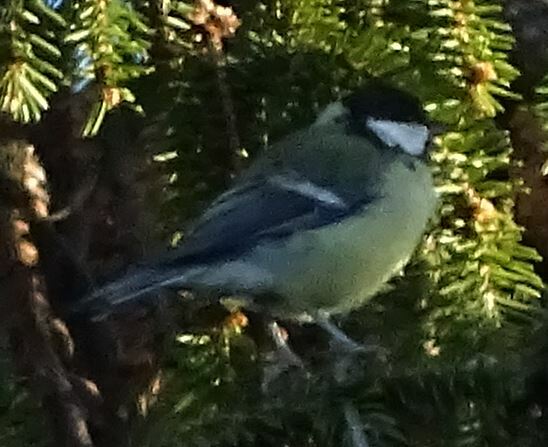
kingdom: Animalia
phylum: Chordata
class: Aves
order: Passeriformes
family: Paridae
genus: Parus
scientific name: Parus major
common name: Great tit
